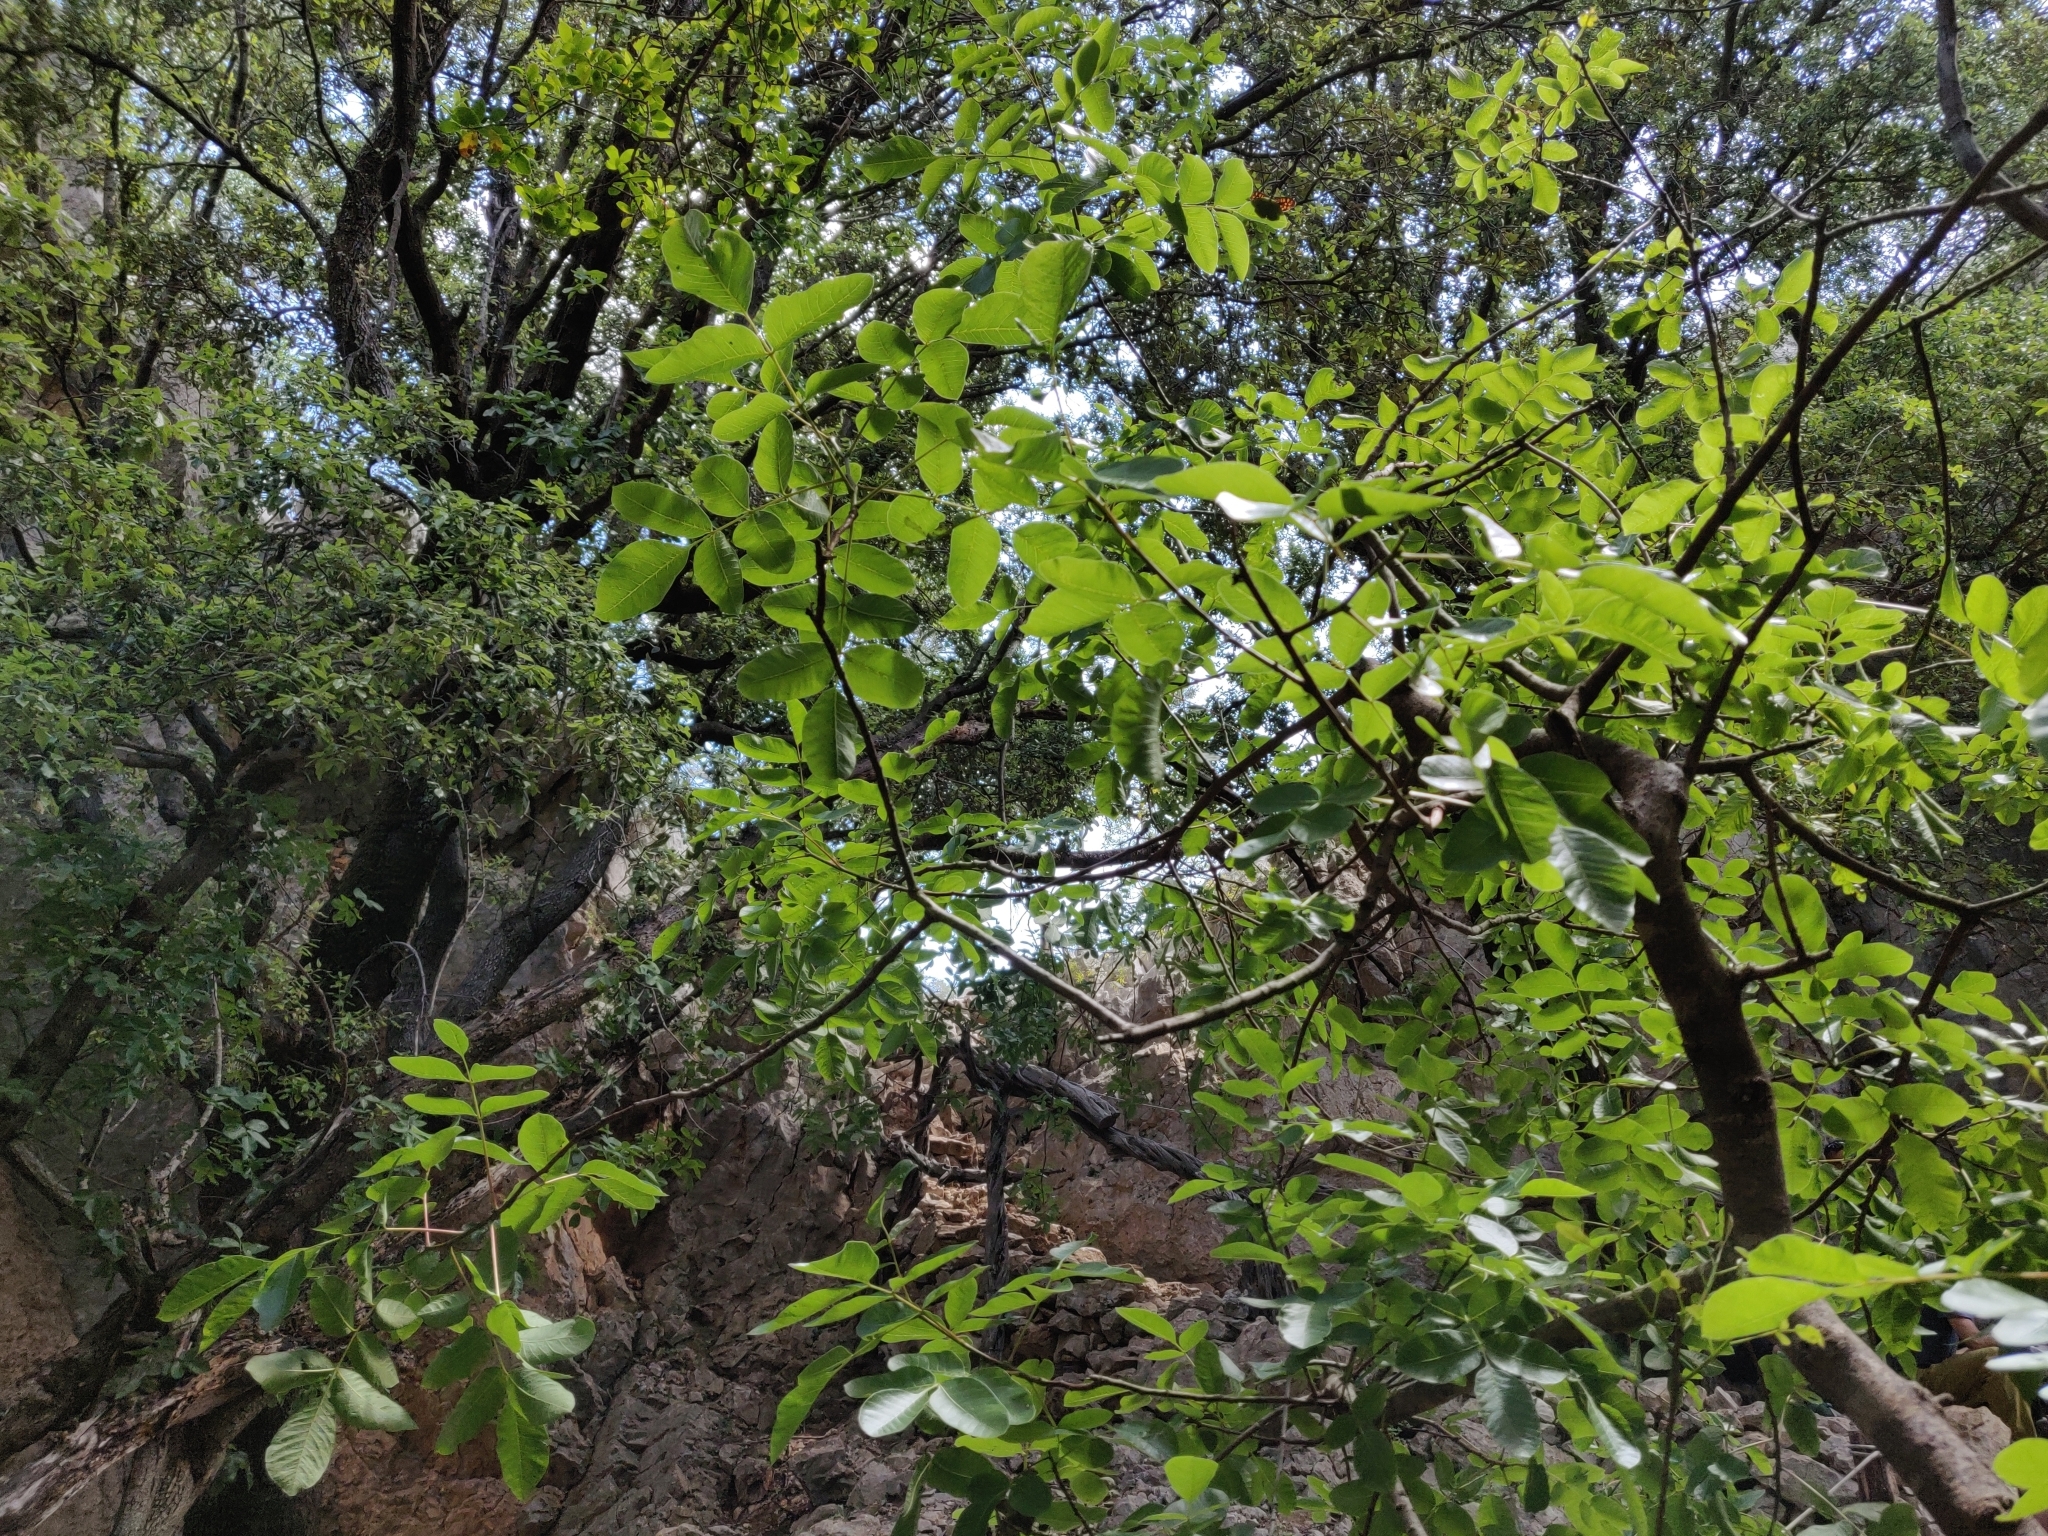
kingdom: Plantae
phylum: Tracheophyta
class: Magnoliopsida
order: Sapindales
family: Anacardiaceae
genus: Pistacia
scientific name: Pistacia terebinthus
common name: Terebinth
